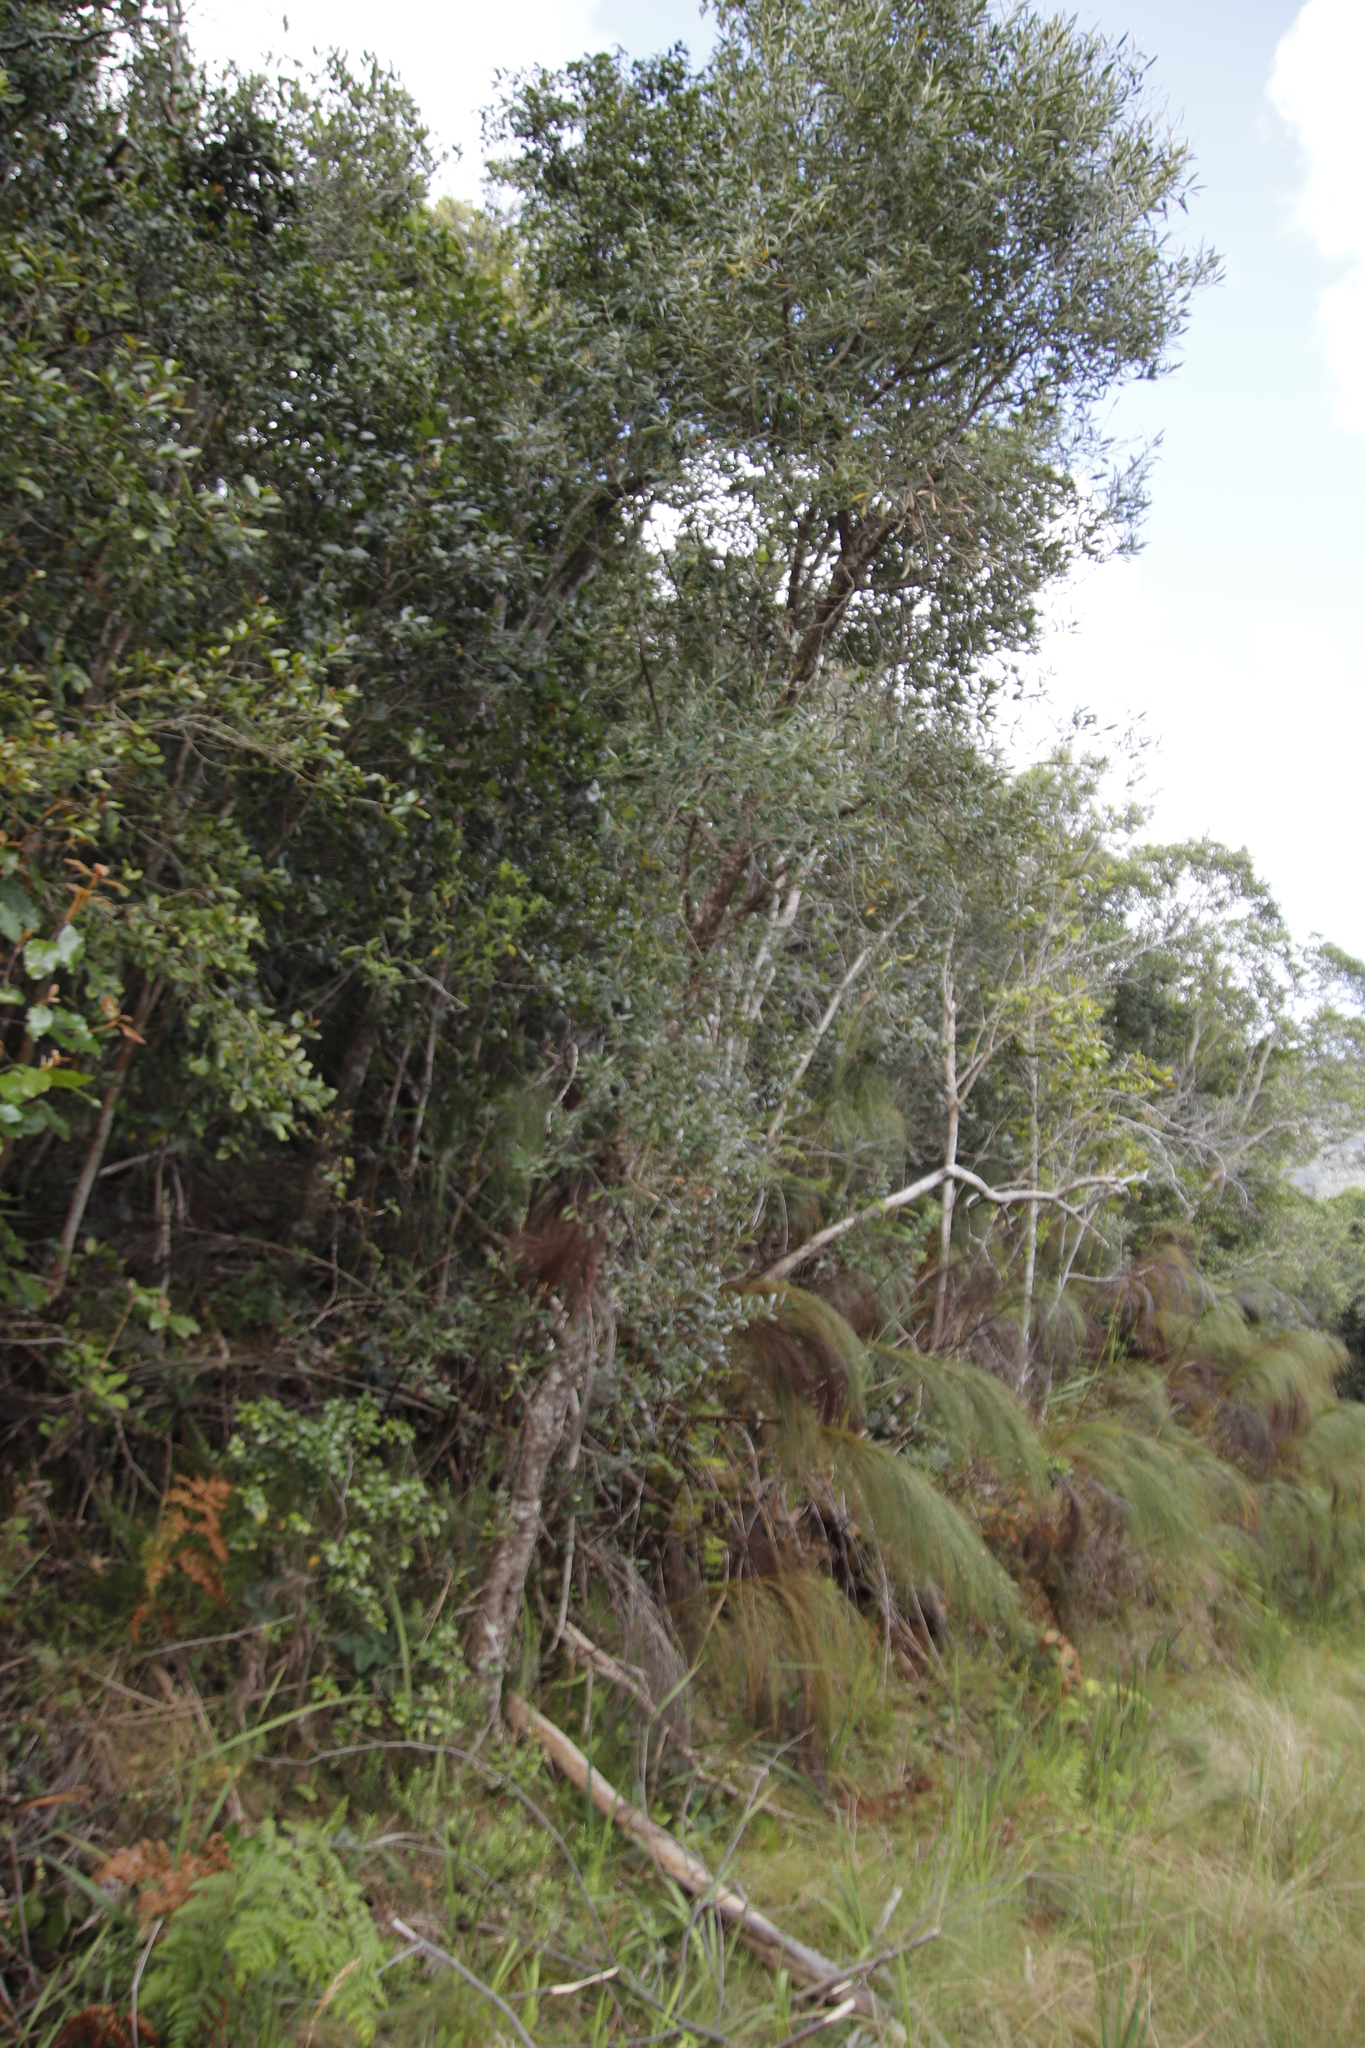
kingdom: Plantae
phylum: Tracheophyta
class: Magnoliopsida
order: Lamiales
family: Oleaceae
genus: Olea
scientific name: Olea europaea
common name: Olive
